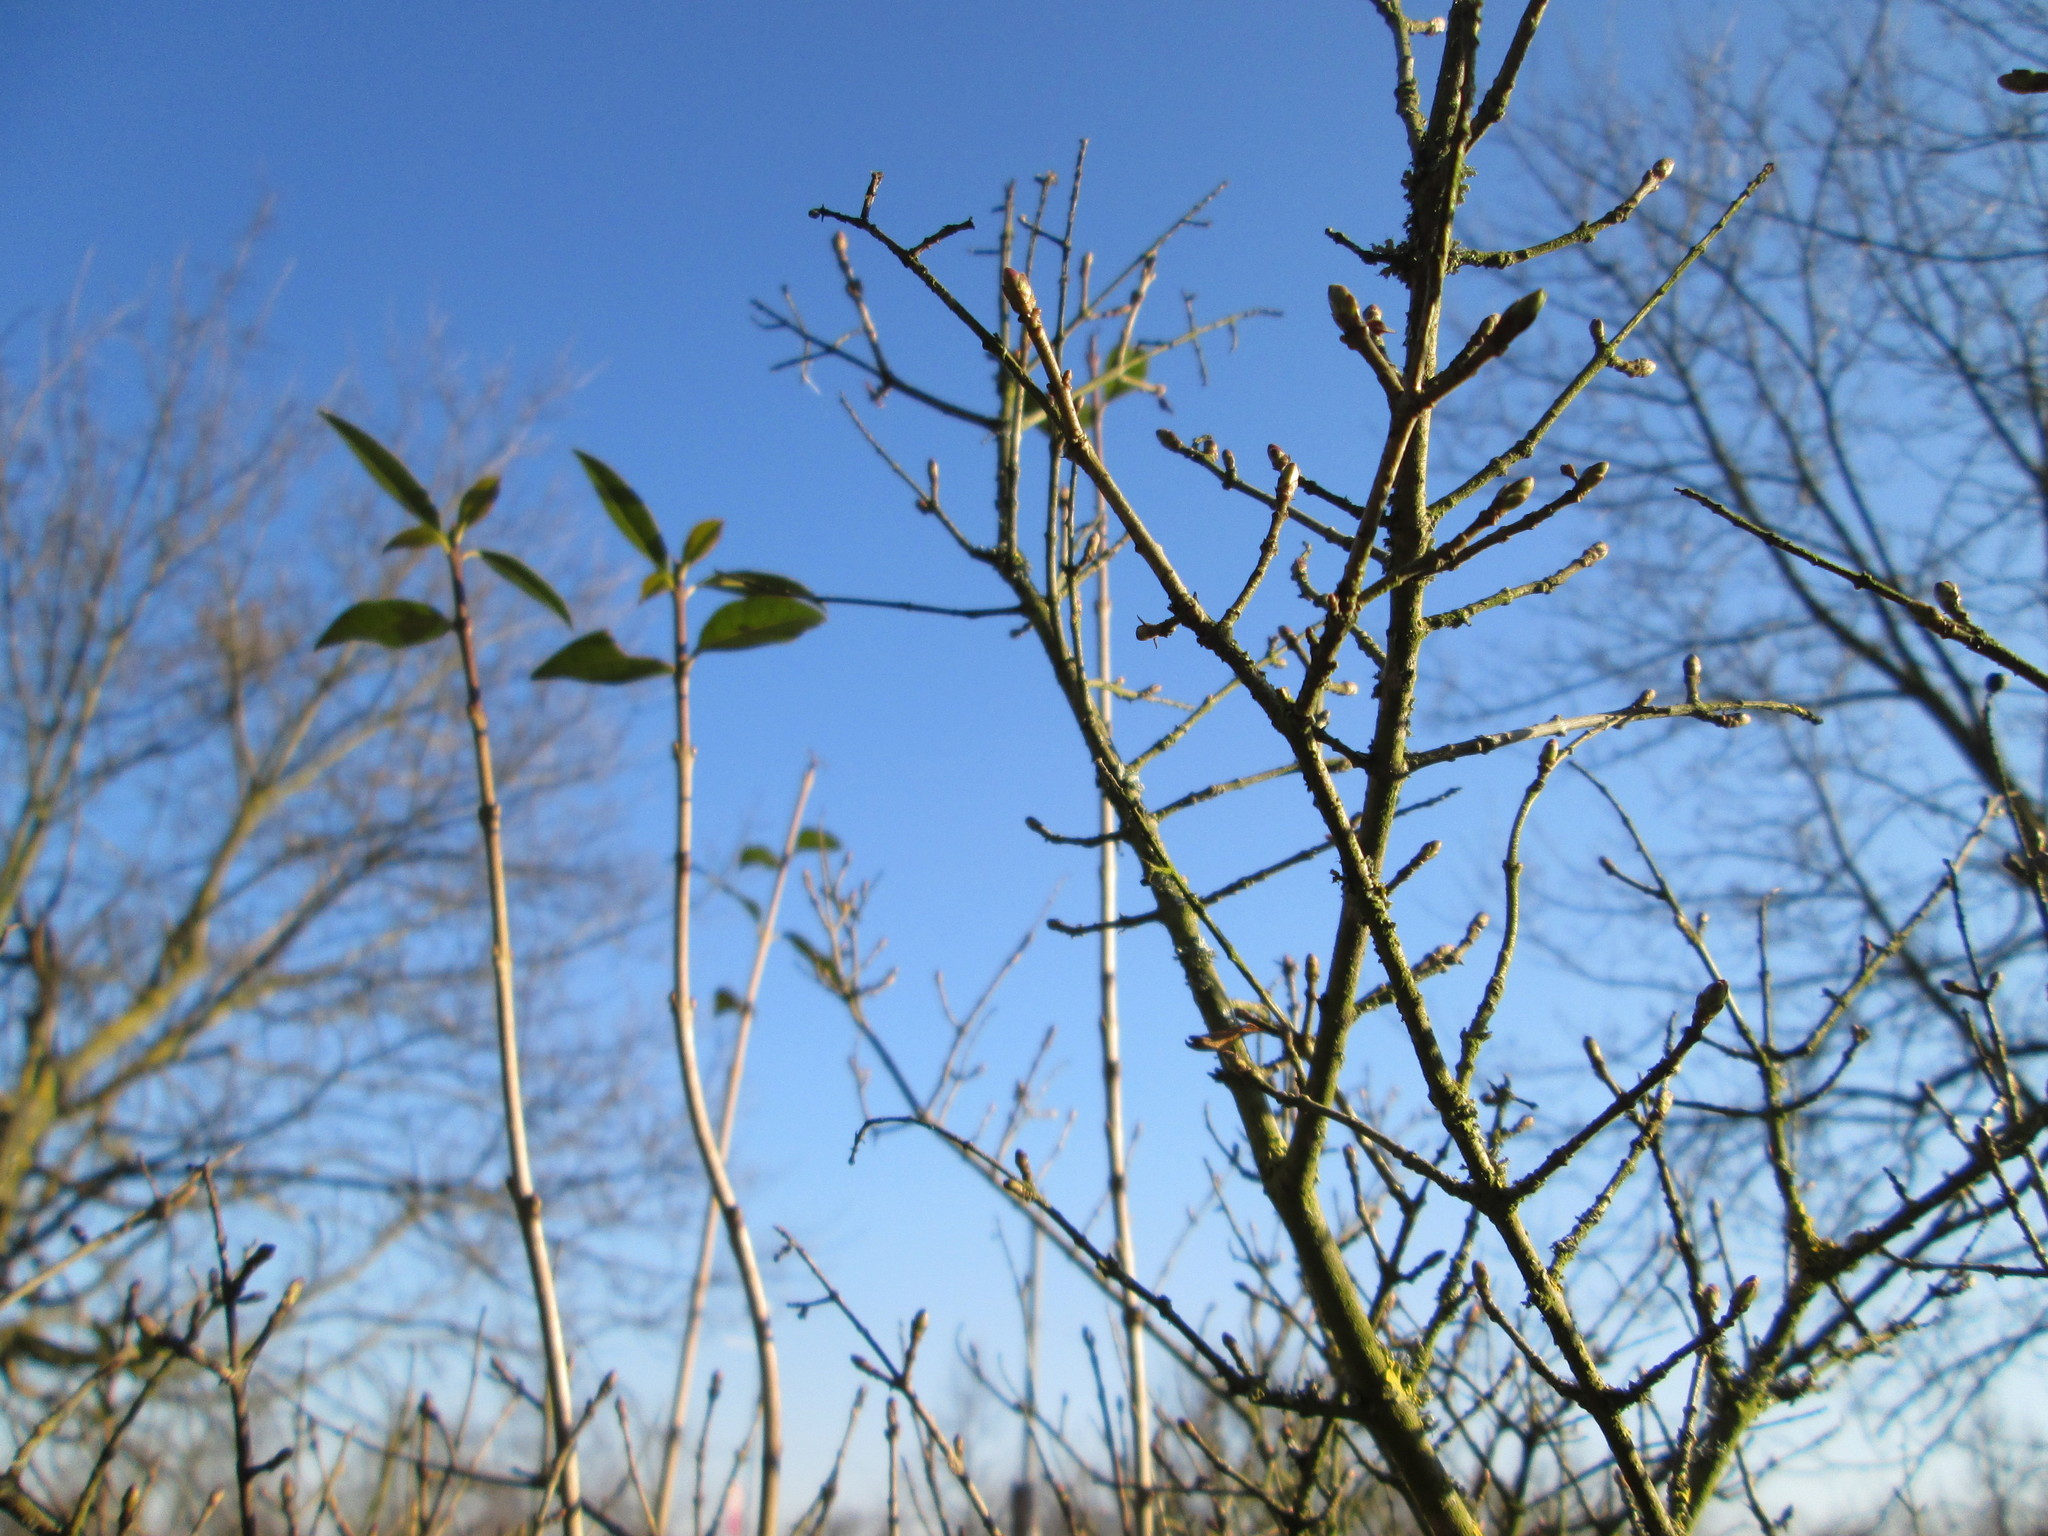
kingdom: Plantae
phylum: Tracheophyta
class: Magnoliopsida
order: Lamiales
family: Oleaceae
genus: Ligustrum
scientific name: Ligustrum vulgare
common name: Wild privet
